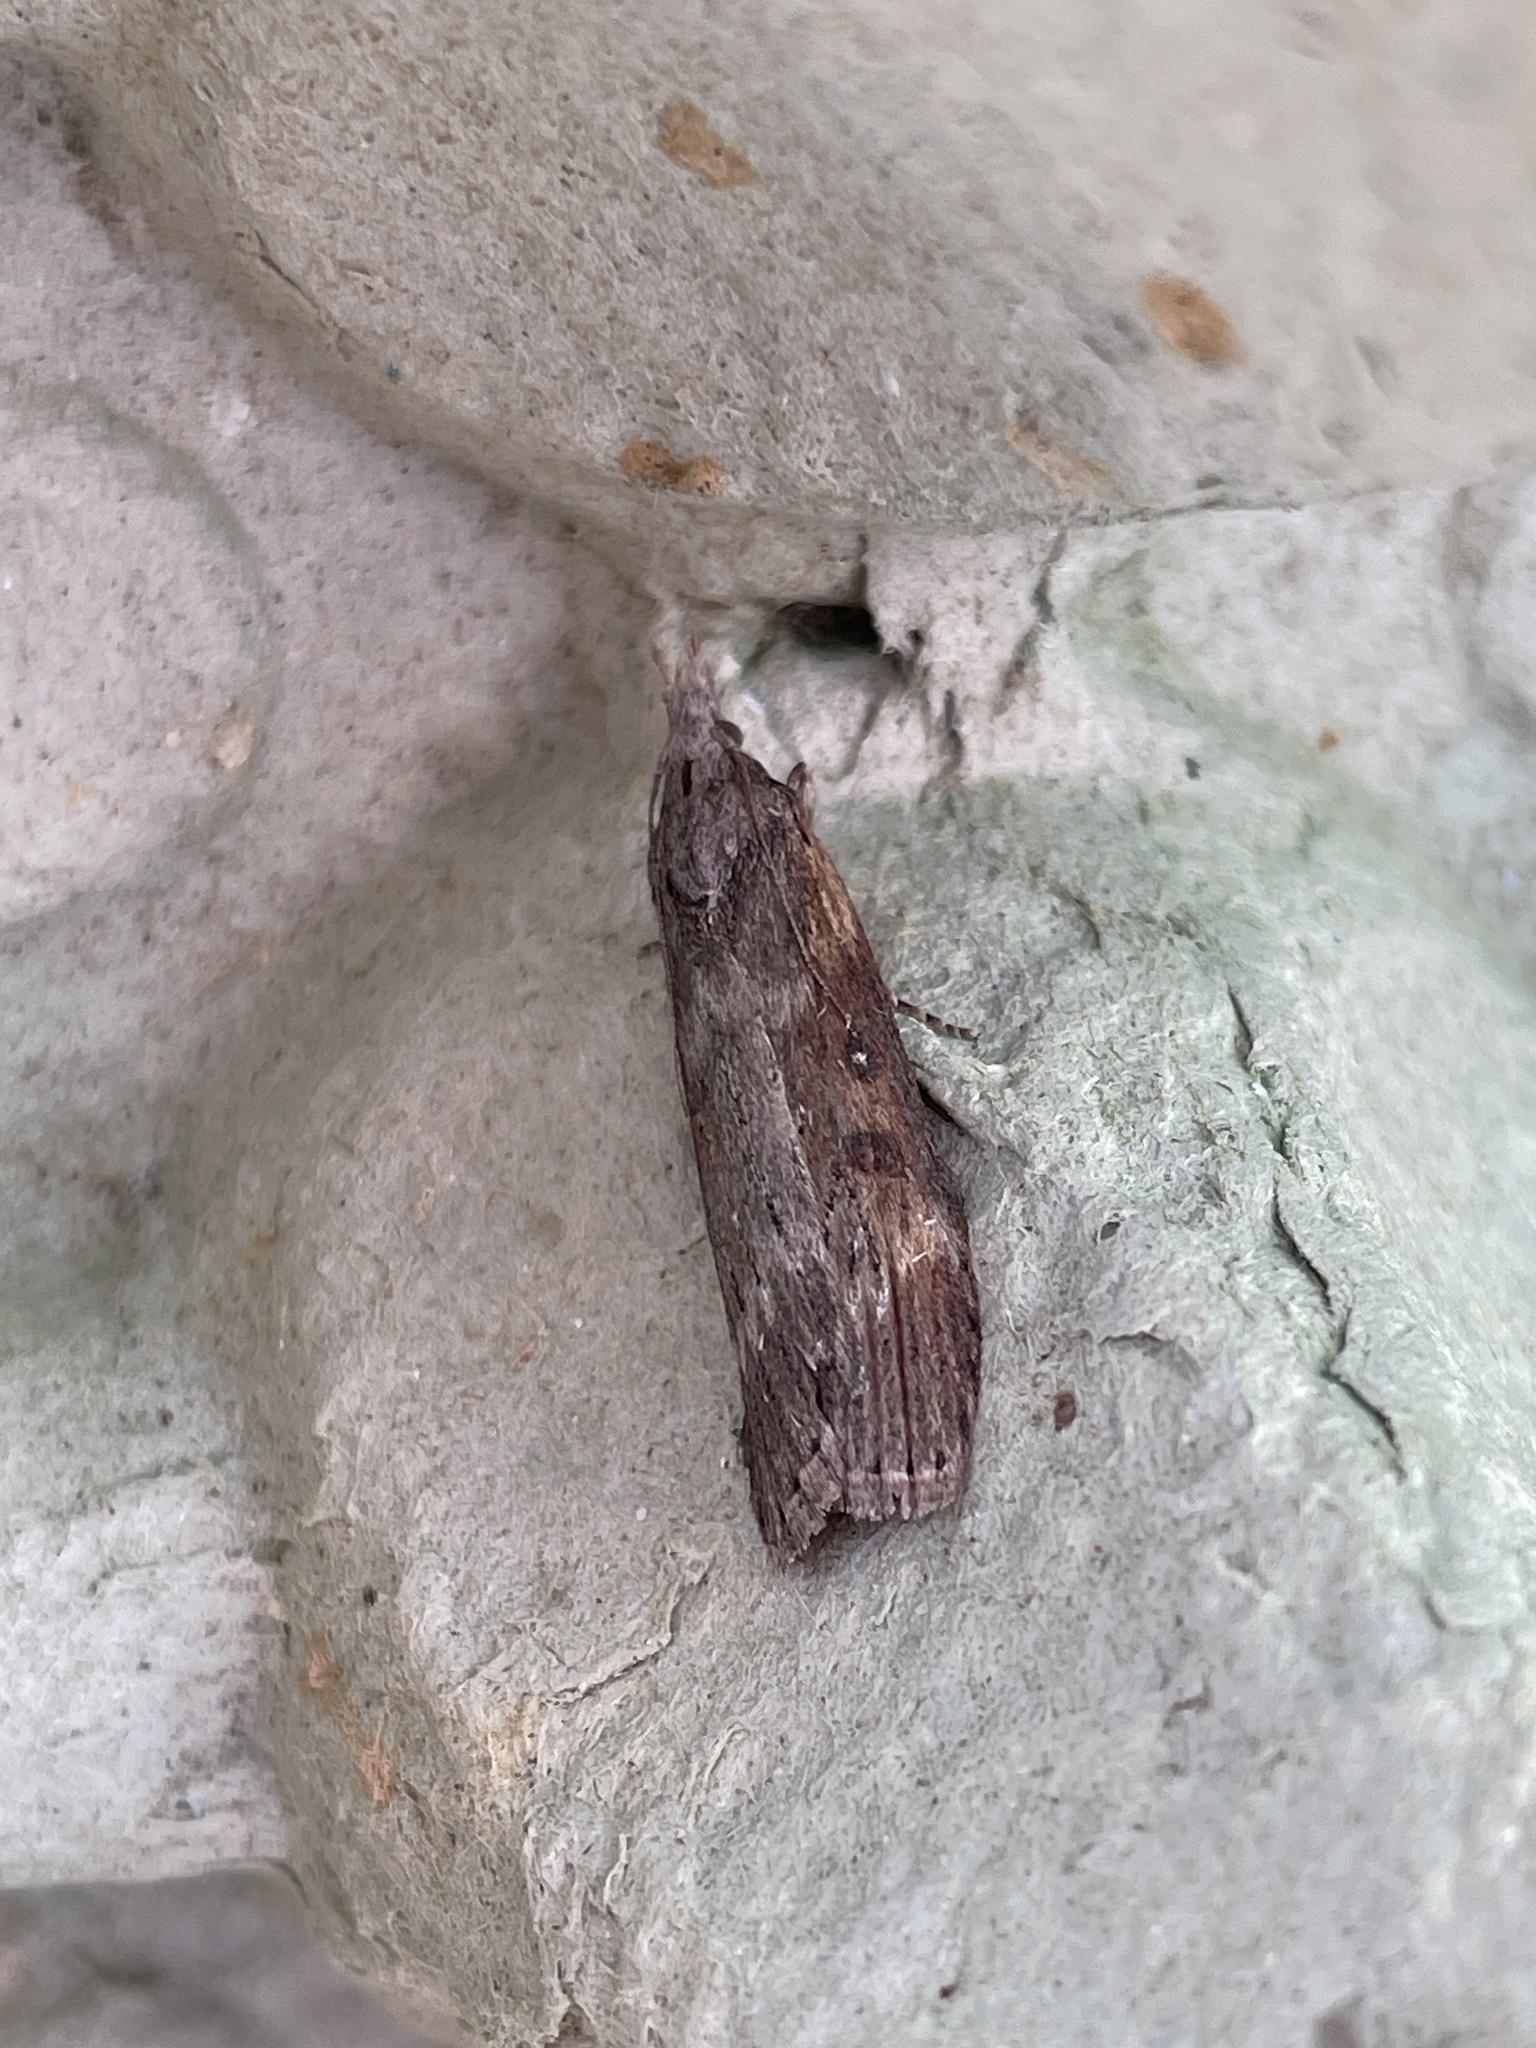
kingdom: Animalia
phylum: Arthropoda
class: Insecta
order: Lepidoptera
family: Pyralidae
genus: Lamoria
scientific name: Lamoria anella
